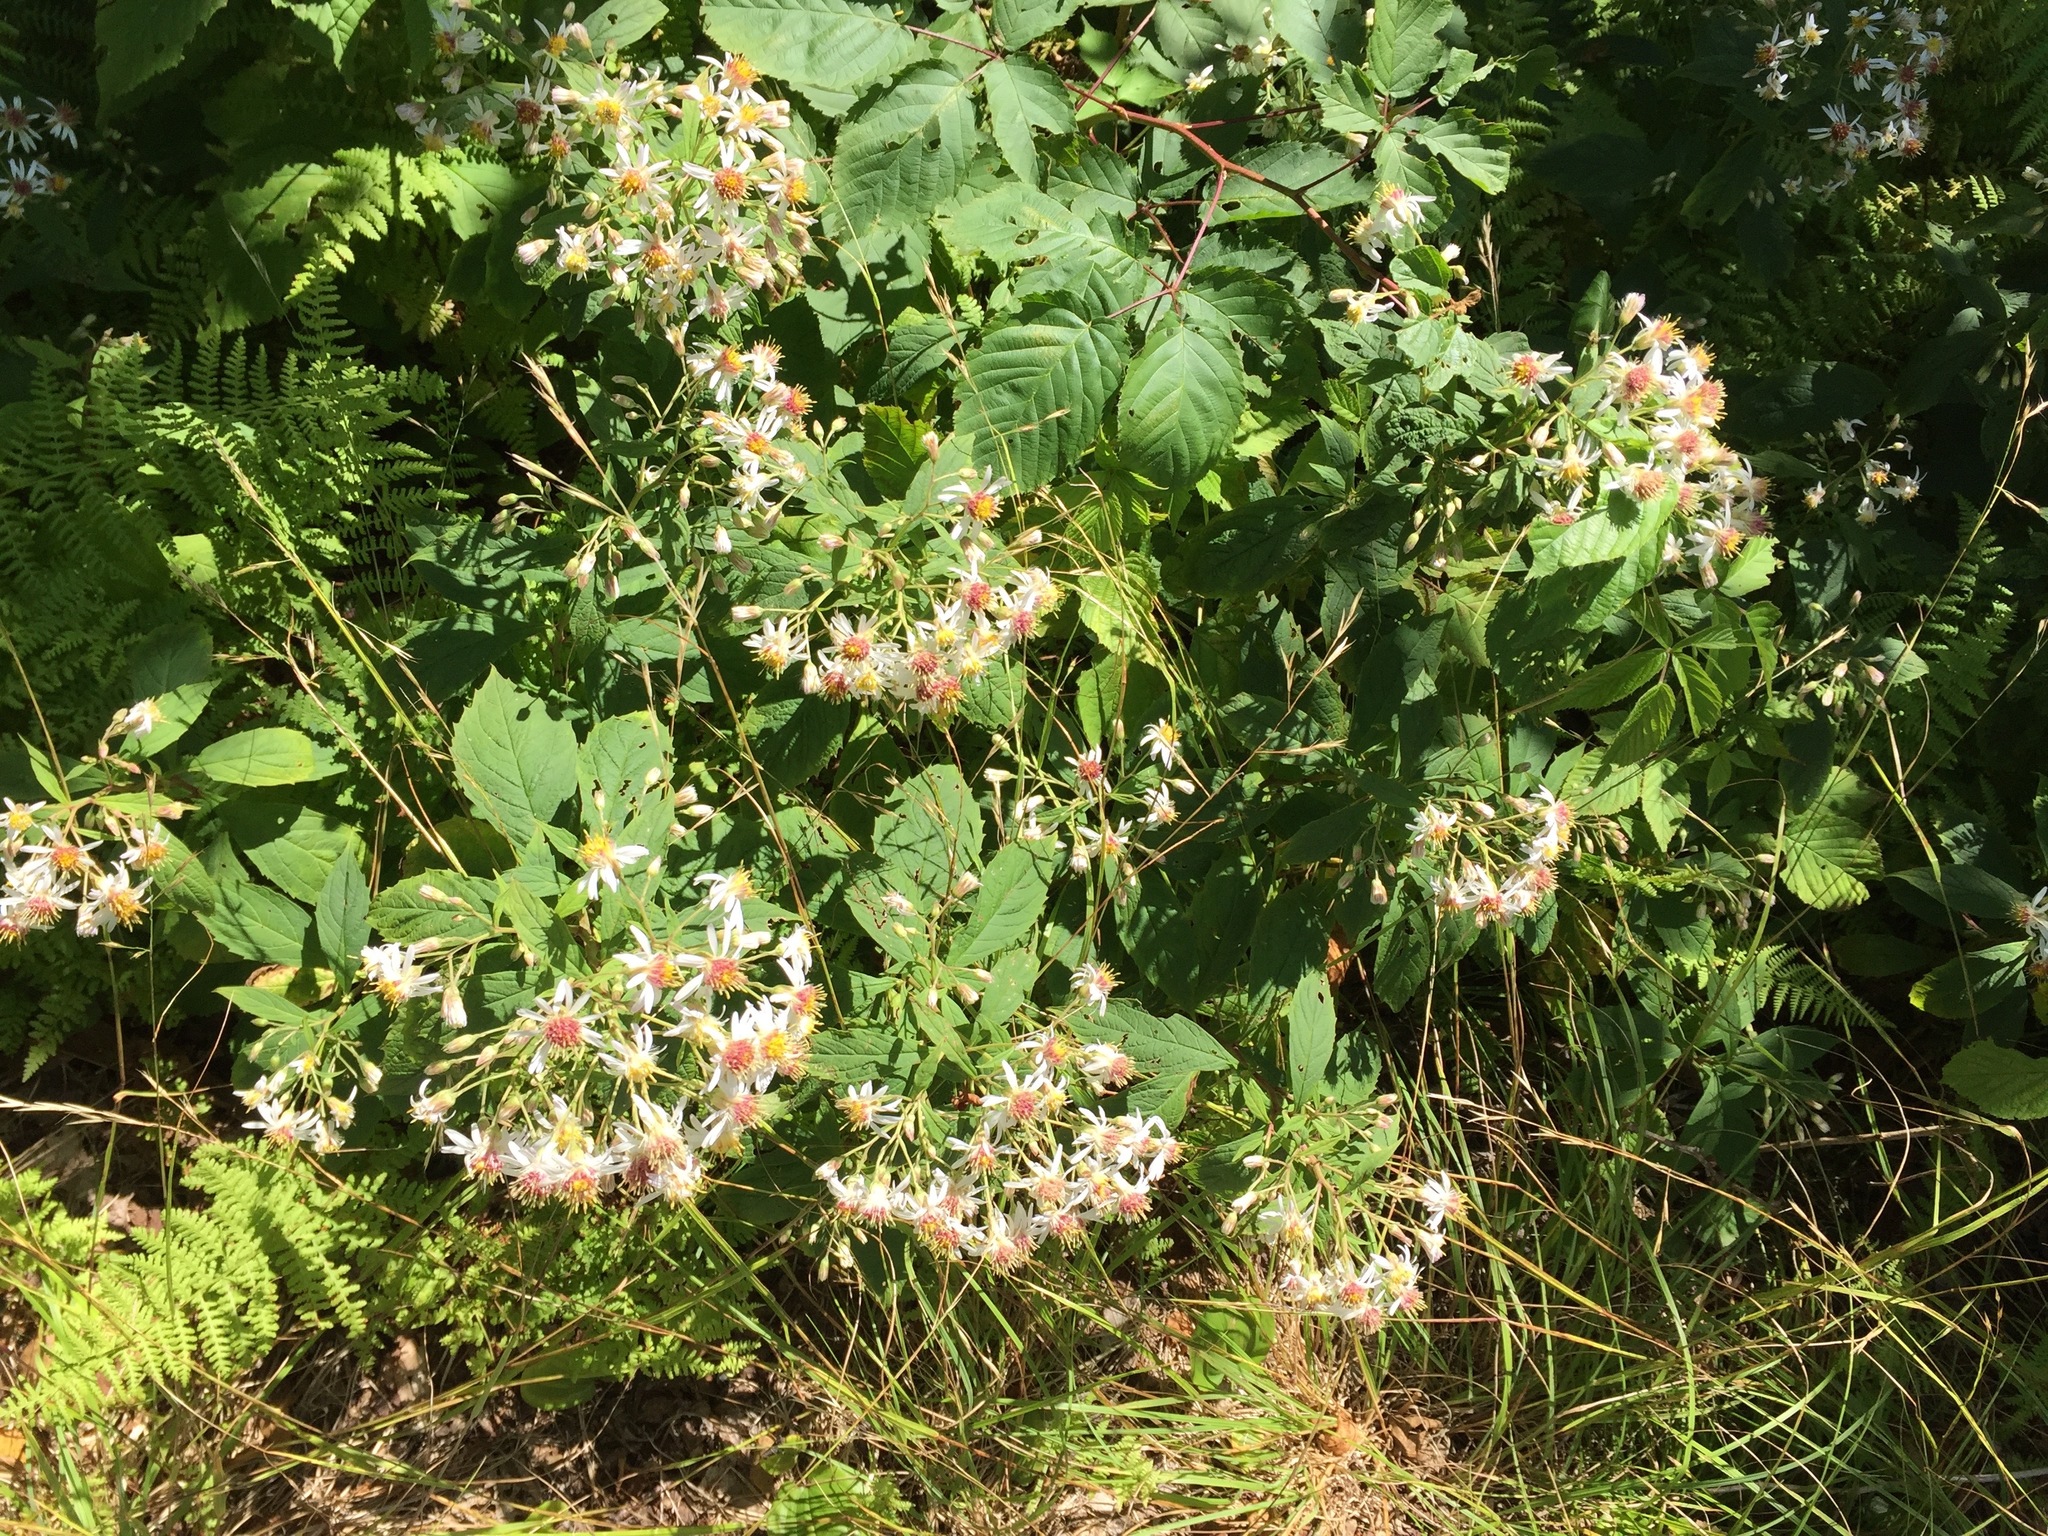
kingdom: Plantae
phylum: Tracheophyta
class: Magnoliopsida
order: Asterales
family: Asteraceae
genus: Oclemena
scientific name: Oclemena acuminata
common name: Mountain aster
